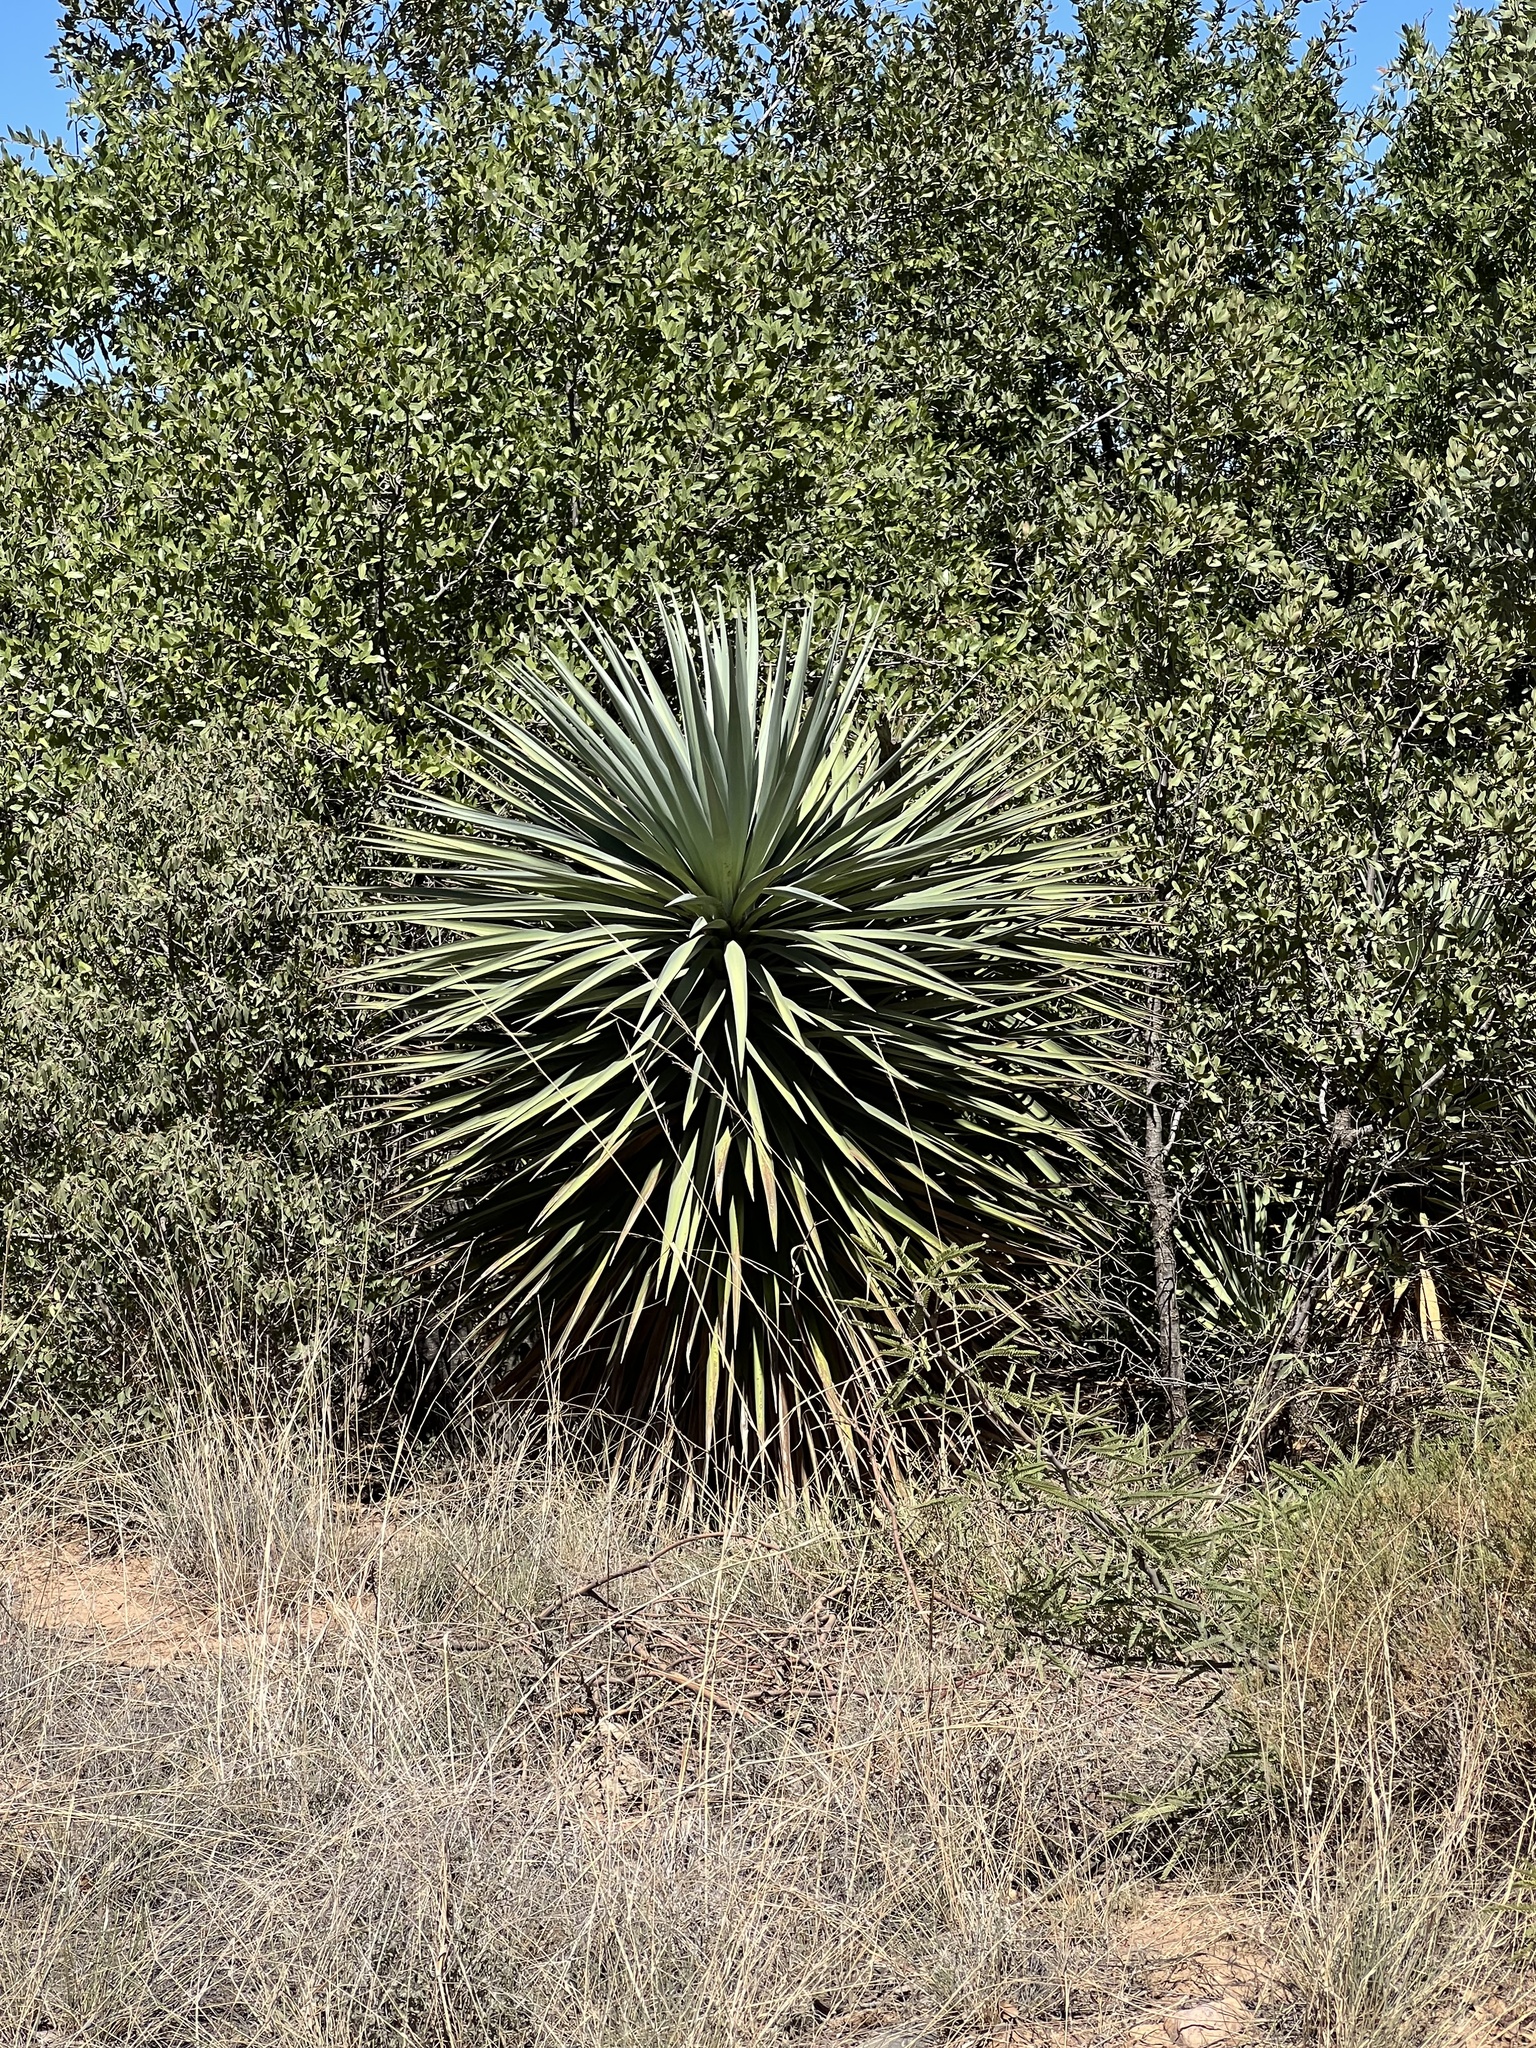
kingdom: Plantae
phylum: Tracheophyta
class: Liliopsida
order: Asparagales
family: Asparagaceae
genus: Yucca
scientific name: Yucca schottii
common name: Hoary yucca
